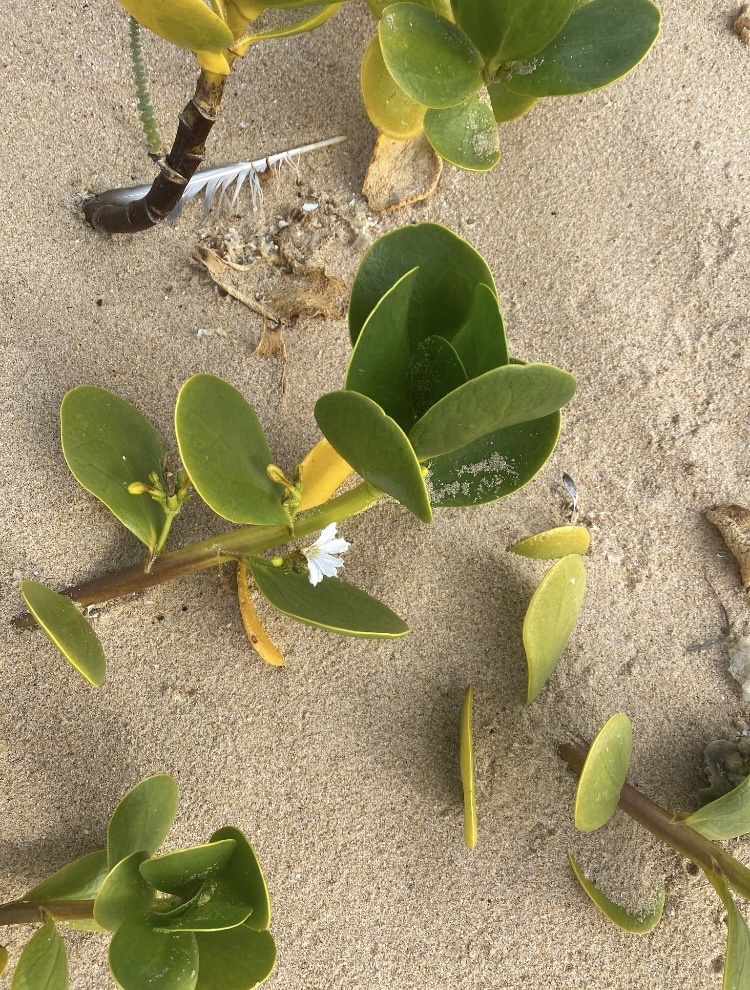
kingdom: Plantae
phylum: Tracheophyta
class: Magnoliopsida
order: Asterales
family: Goodeniaceae
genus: Scaevola
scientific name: Scaevola plumieri
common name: Gull feed
